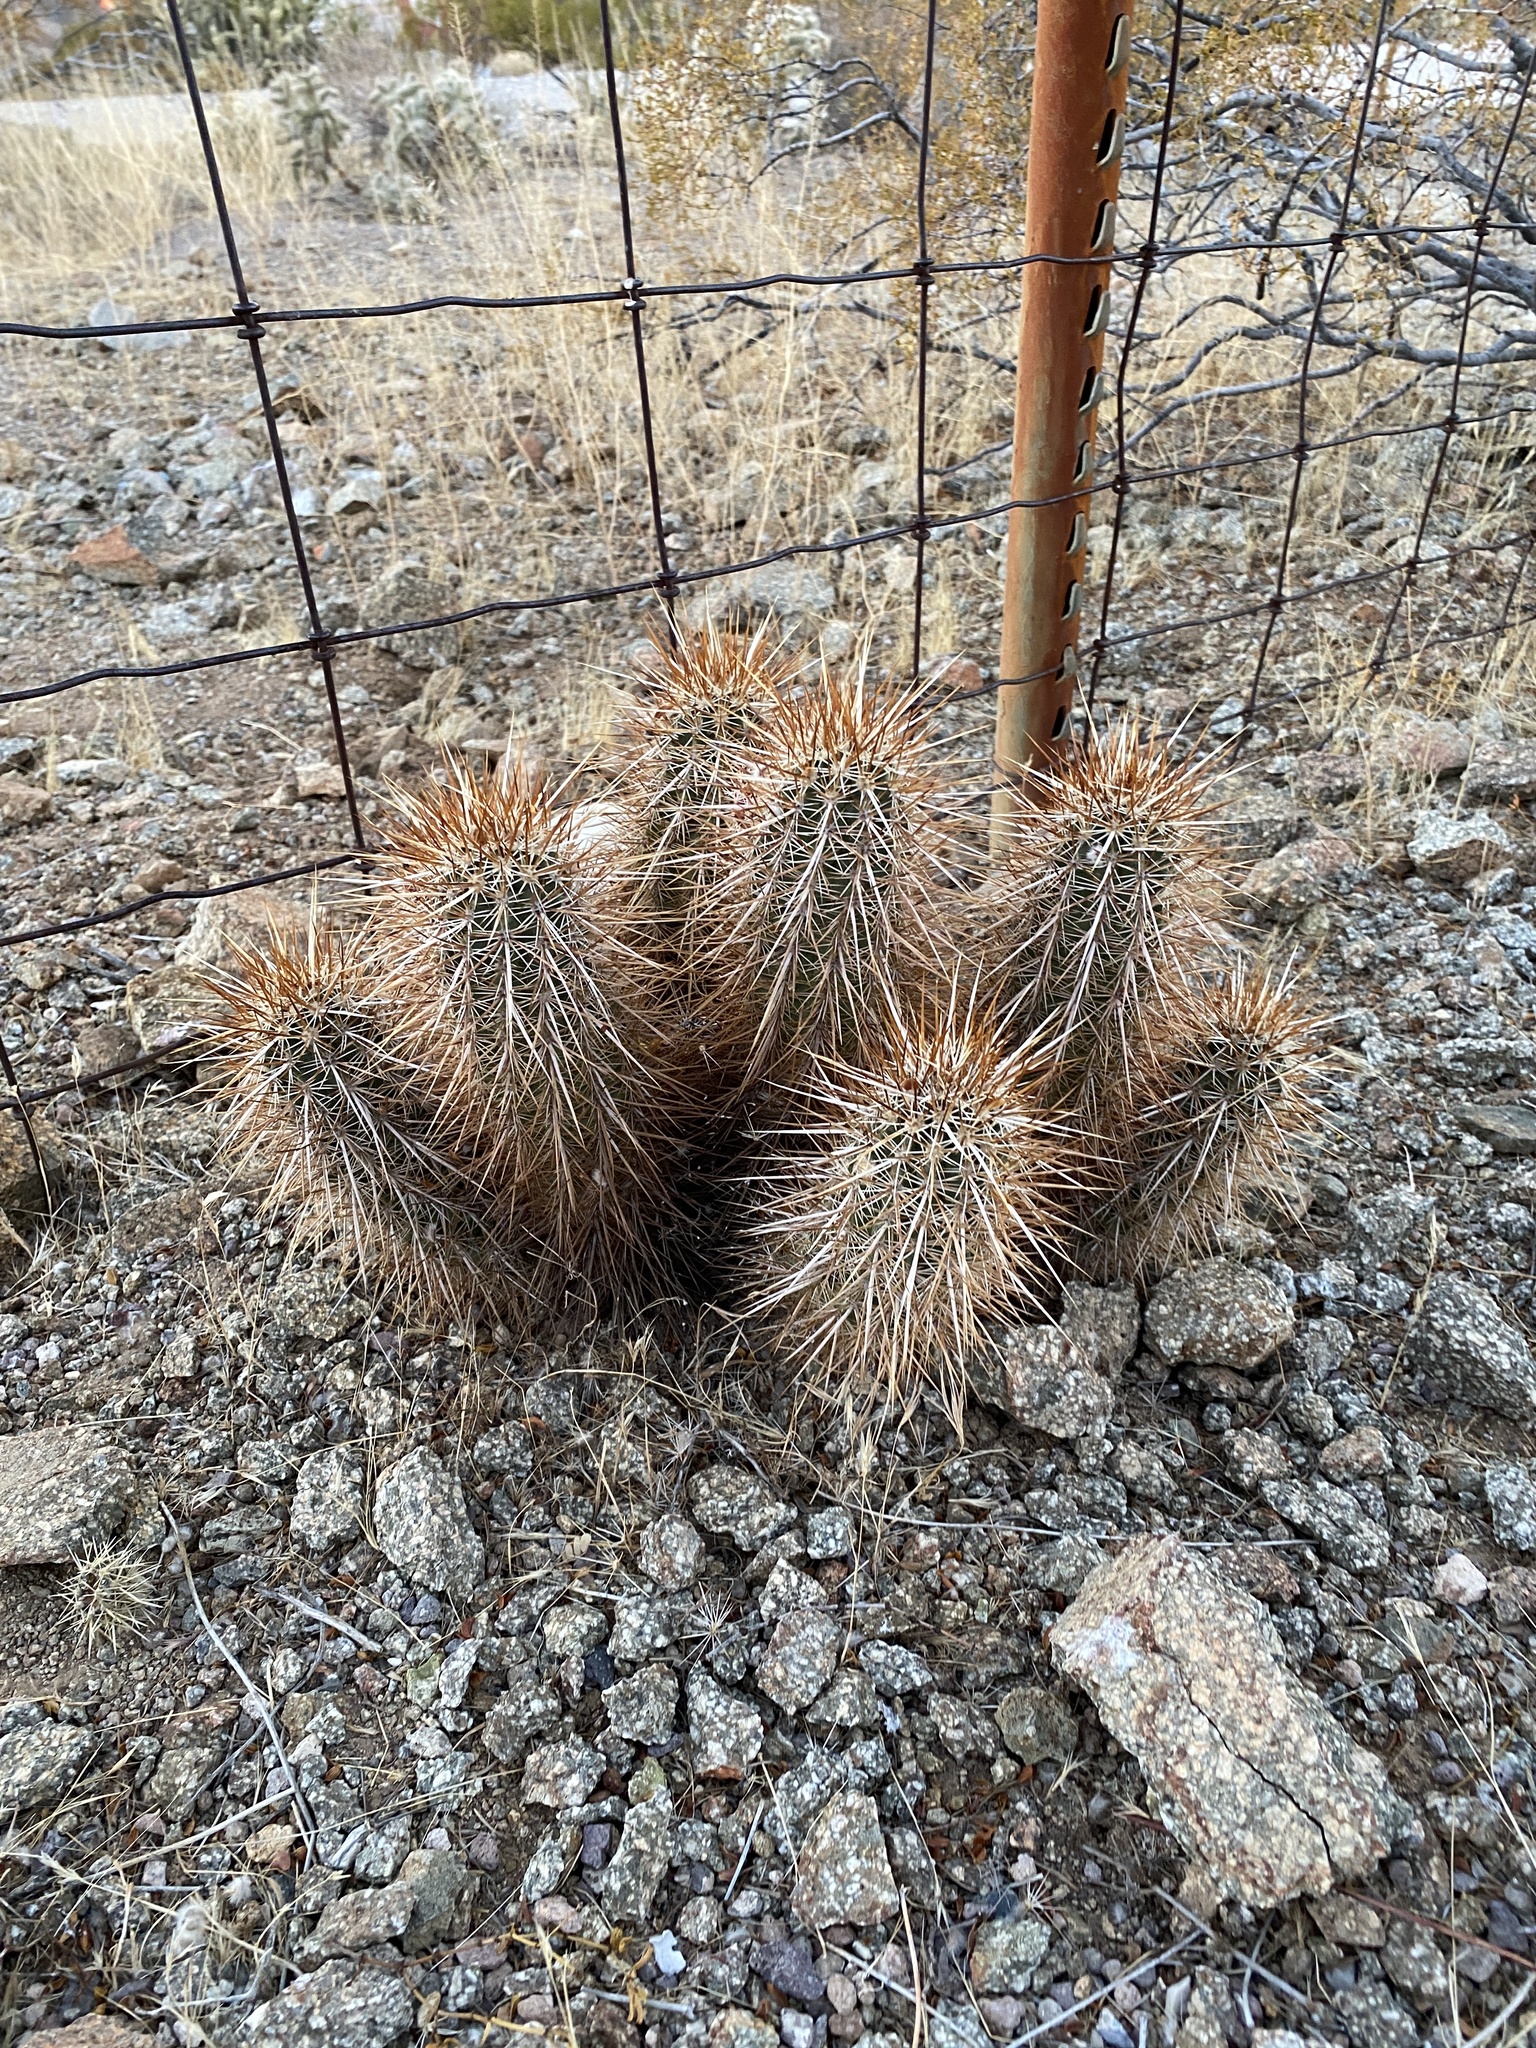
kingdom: Plantae
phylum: Tracheophyta
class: Magnoliopsida
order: Caryophyllales
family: Cactaceae
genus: Echinocereus
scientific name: Echinocereus engelmannii
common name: Engelmann's hedgehog cactus
